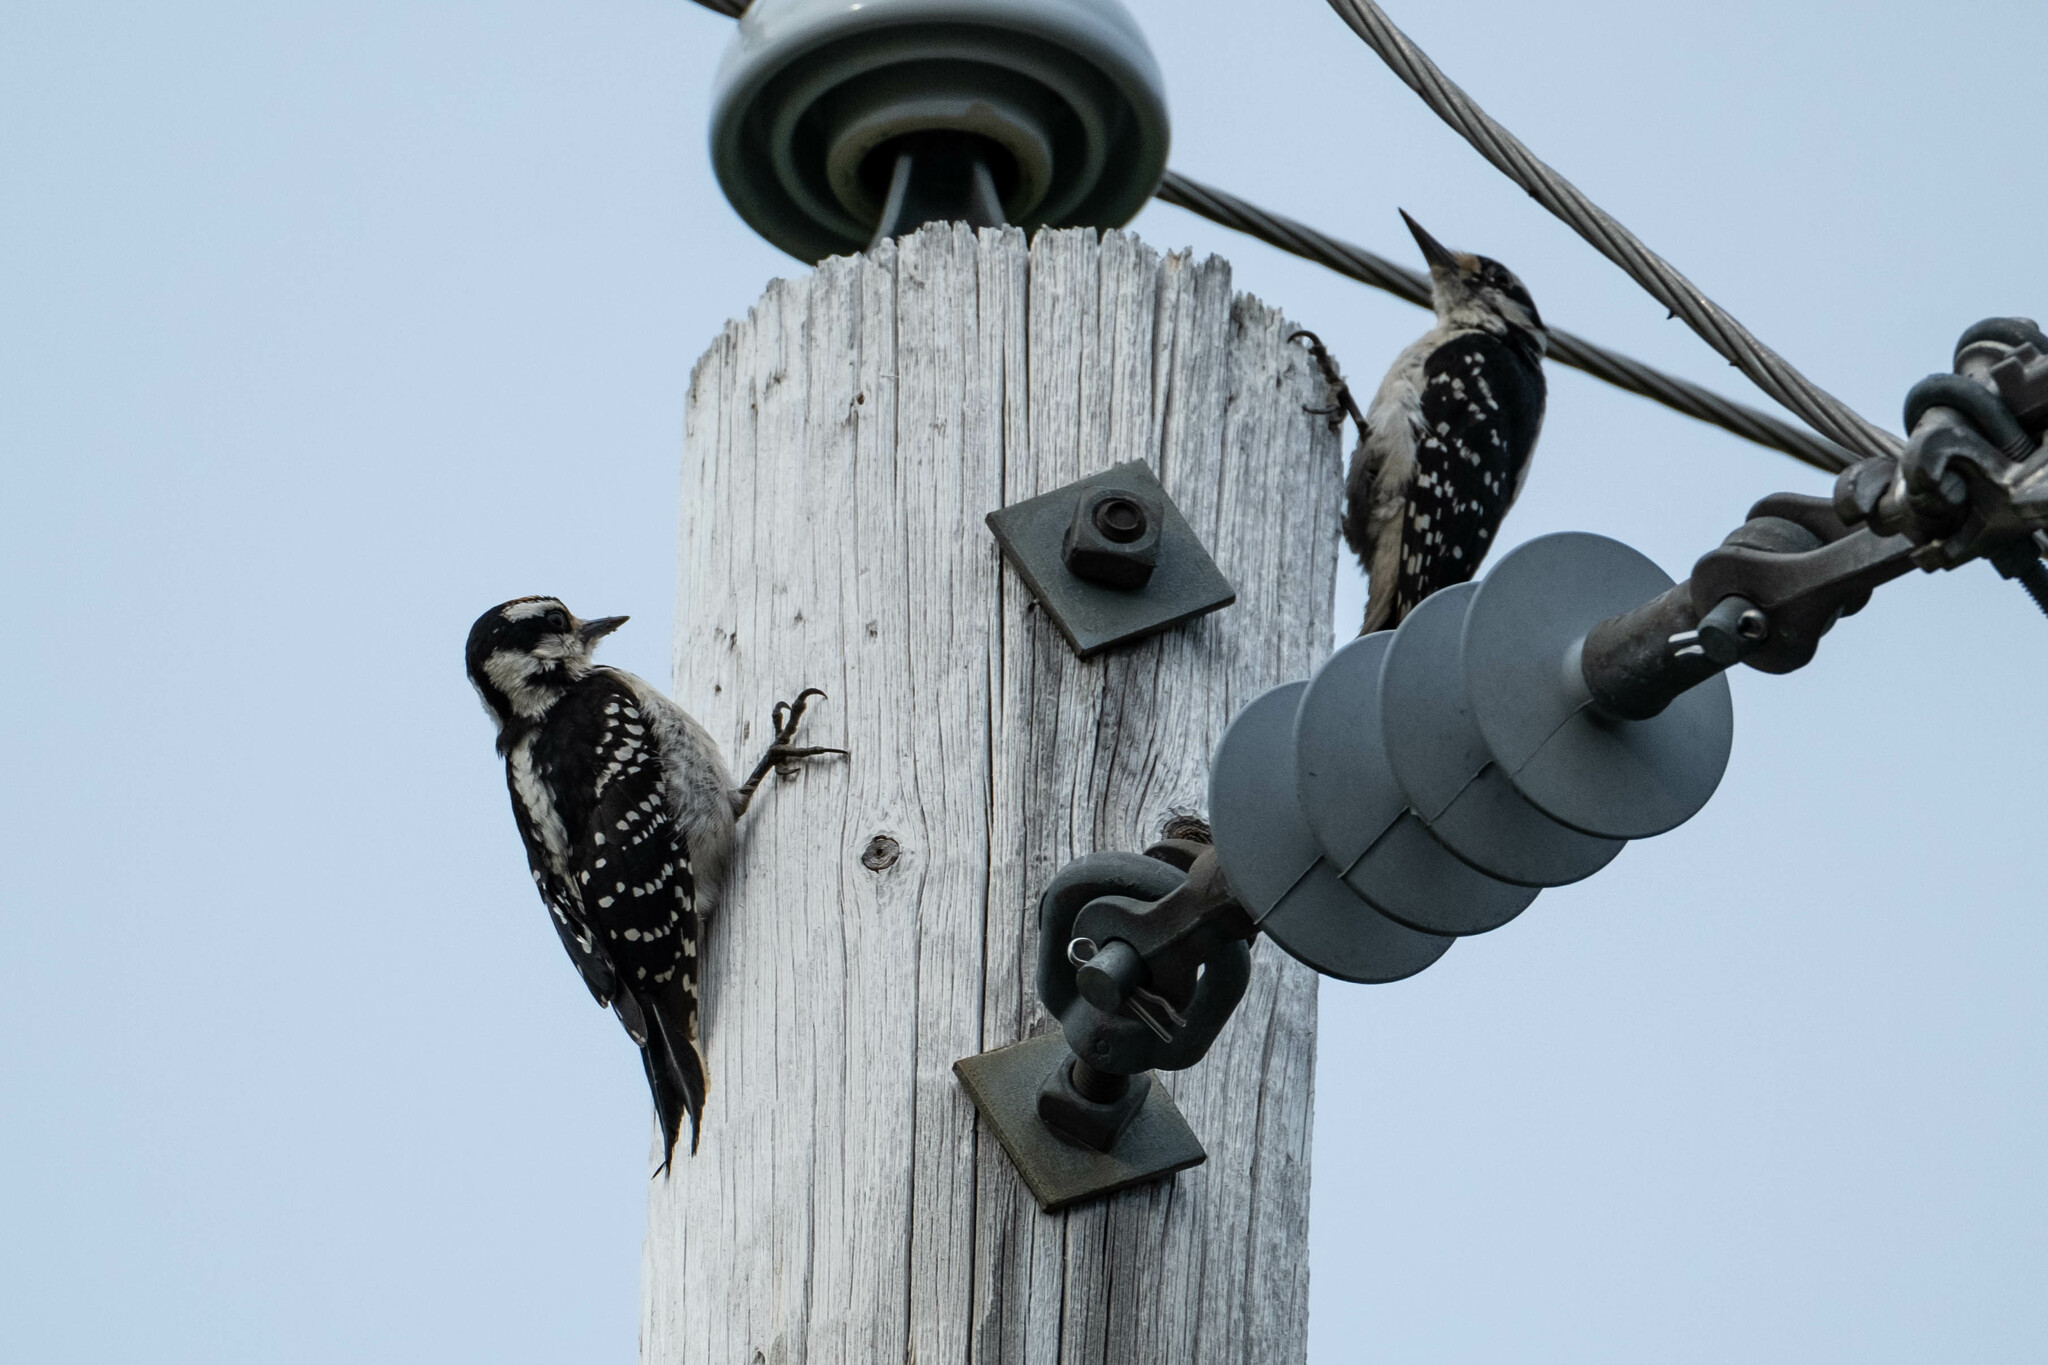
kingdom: Animalia
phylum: Chordata
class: Aves
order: Piciformes
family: Picidae
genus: Leuconotopicus
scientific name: Leuconotopicus villosus
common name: Hairy woodpecker
